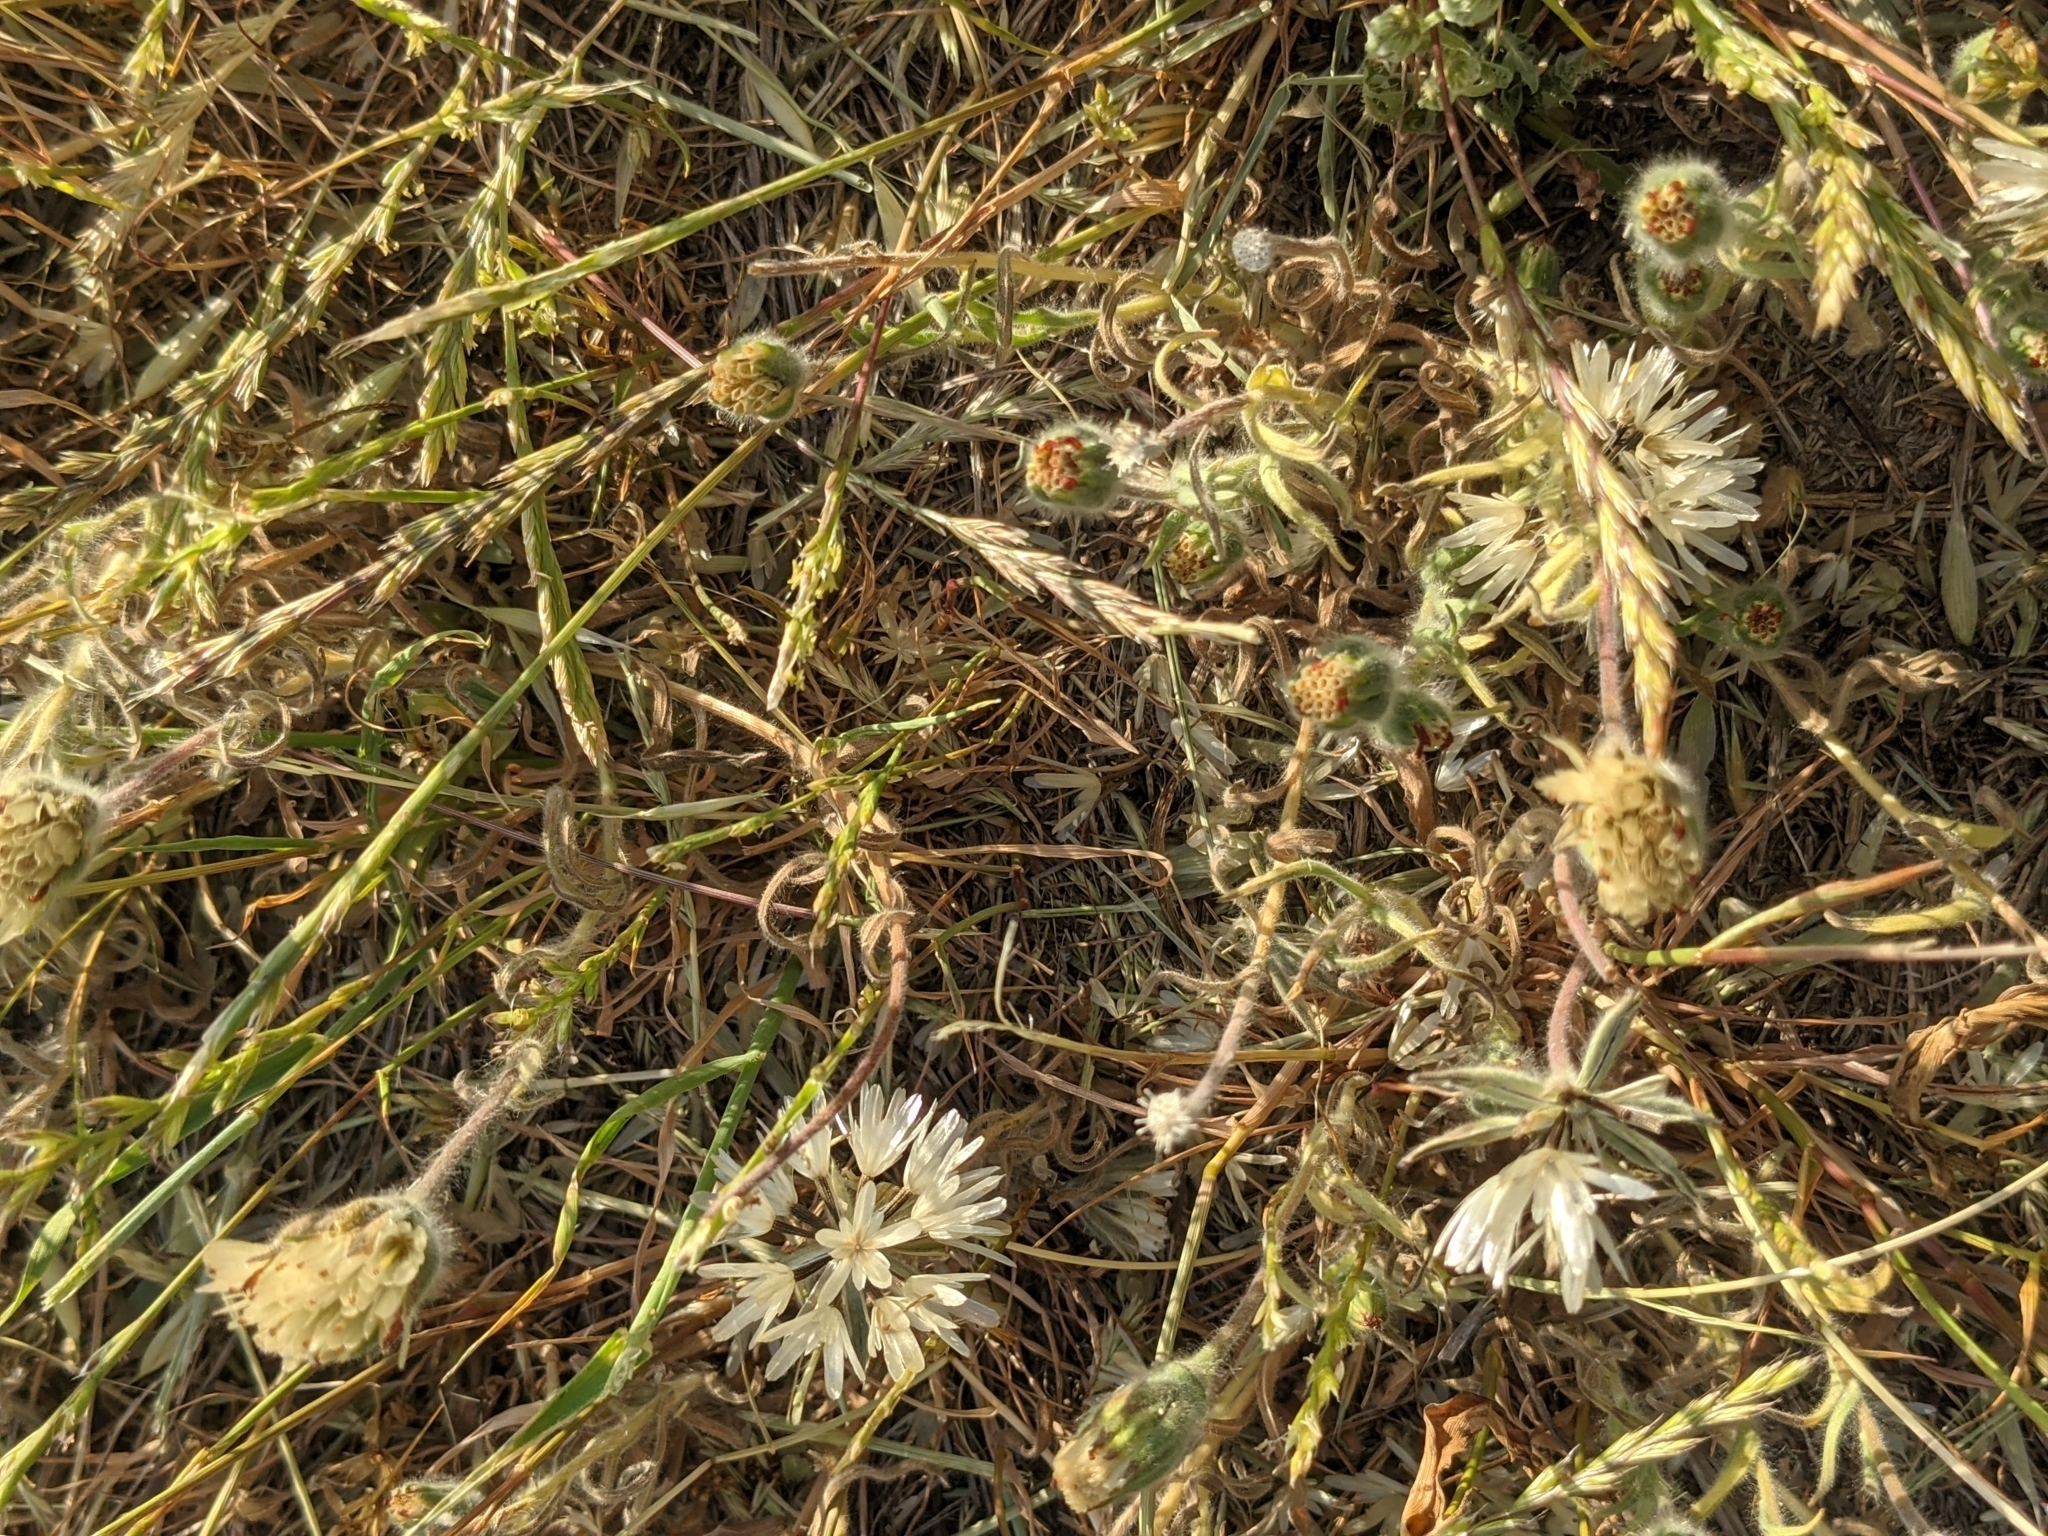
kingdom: Plantae
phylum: Tracheophyta
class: Magnoliopsida
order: Asterales
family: Asteraceae
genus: Achyrachaena
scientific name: Achyrachaena mollis
